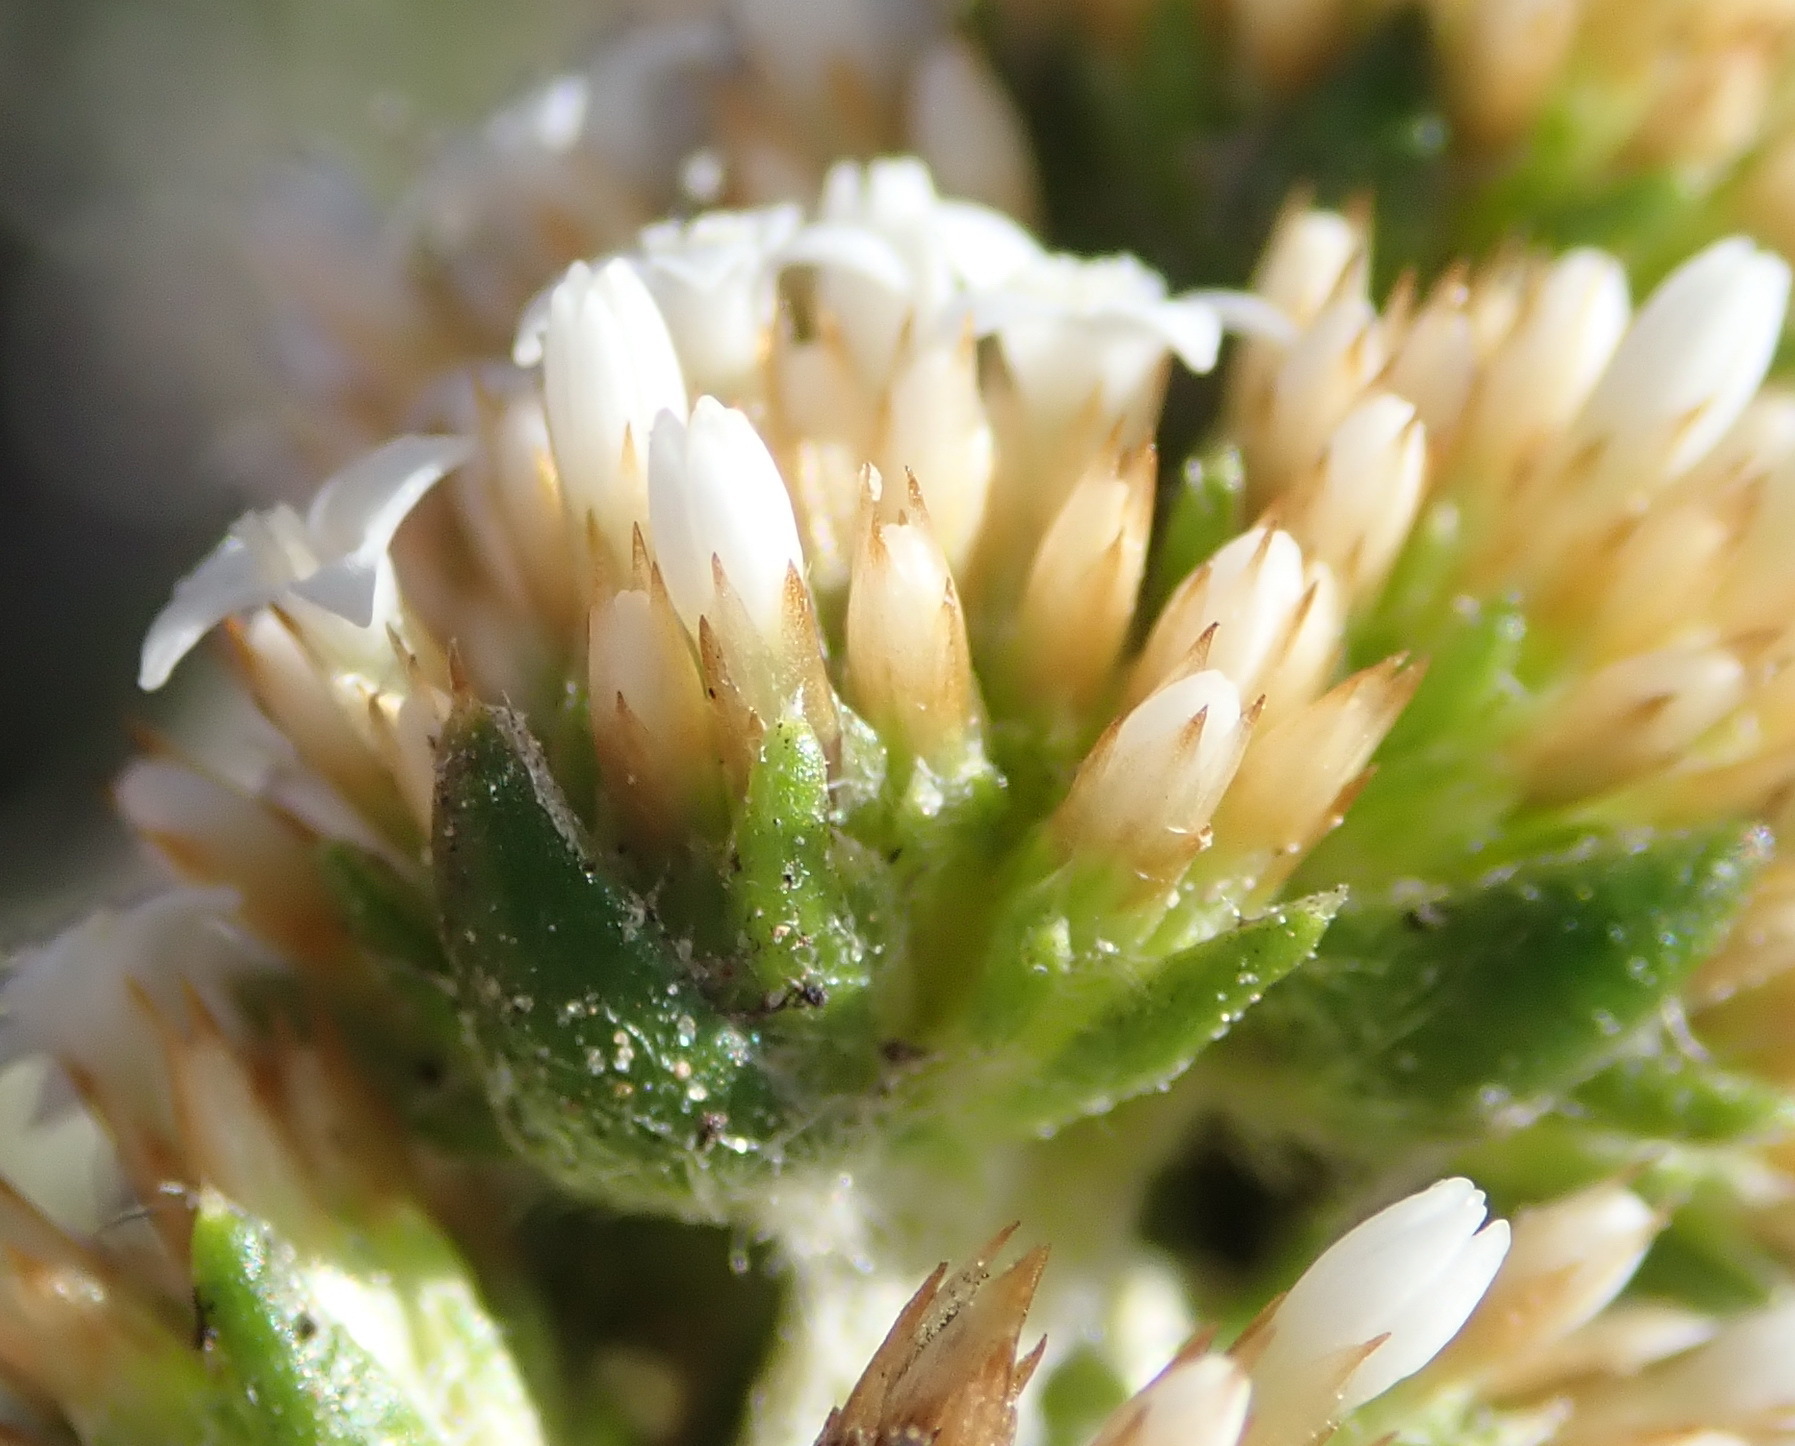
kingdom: Plantae
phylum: Tracheophyta
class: Magnoliopsida
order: Asterales
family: Asteraceae
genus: Stoebe
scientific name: Stoebe phyllostachya
